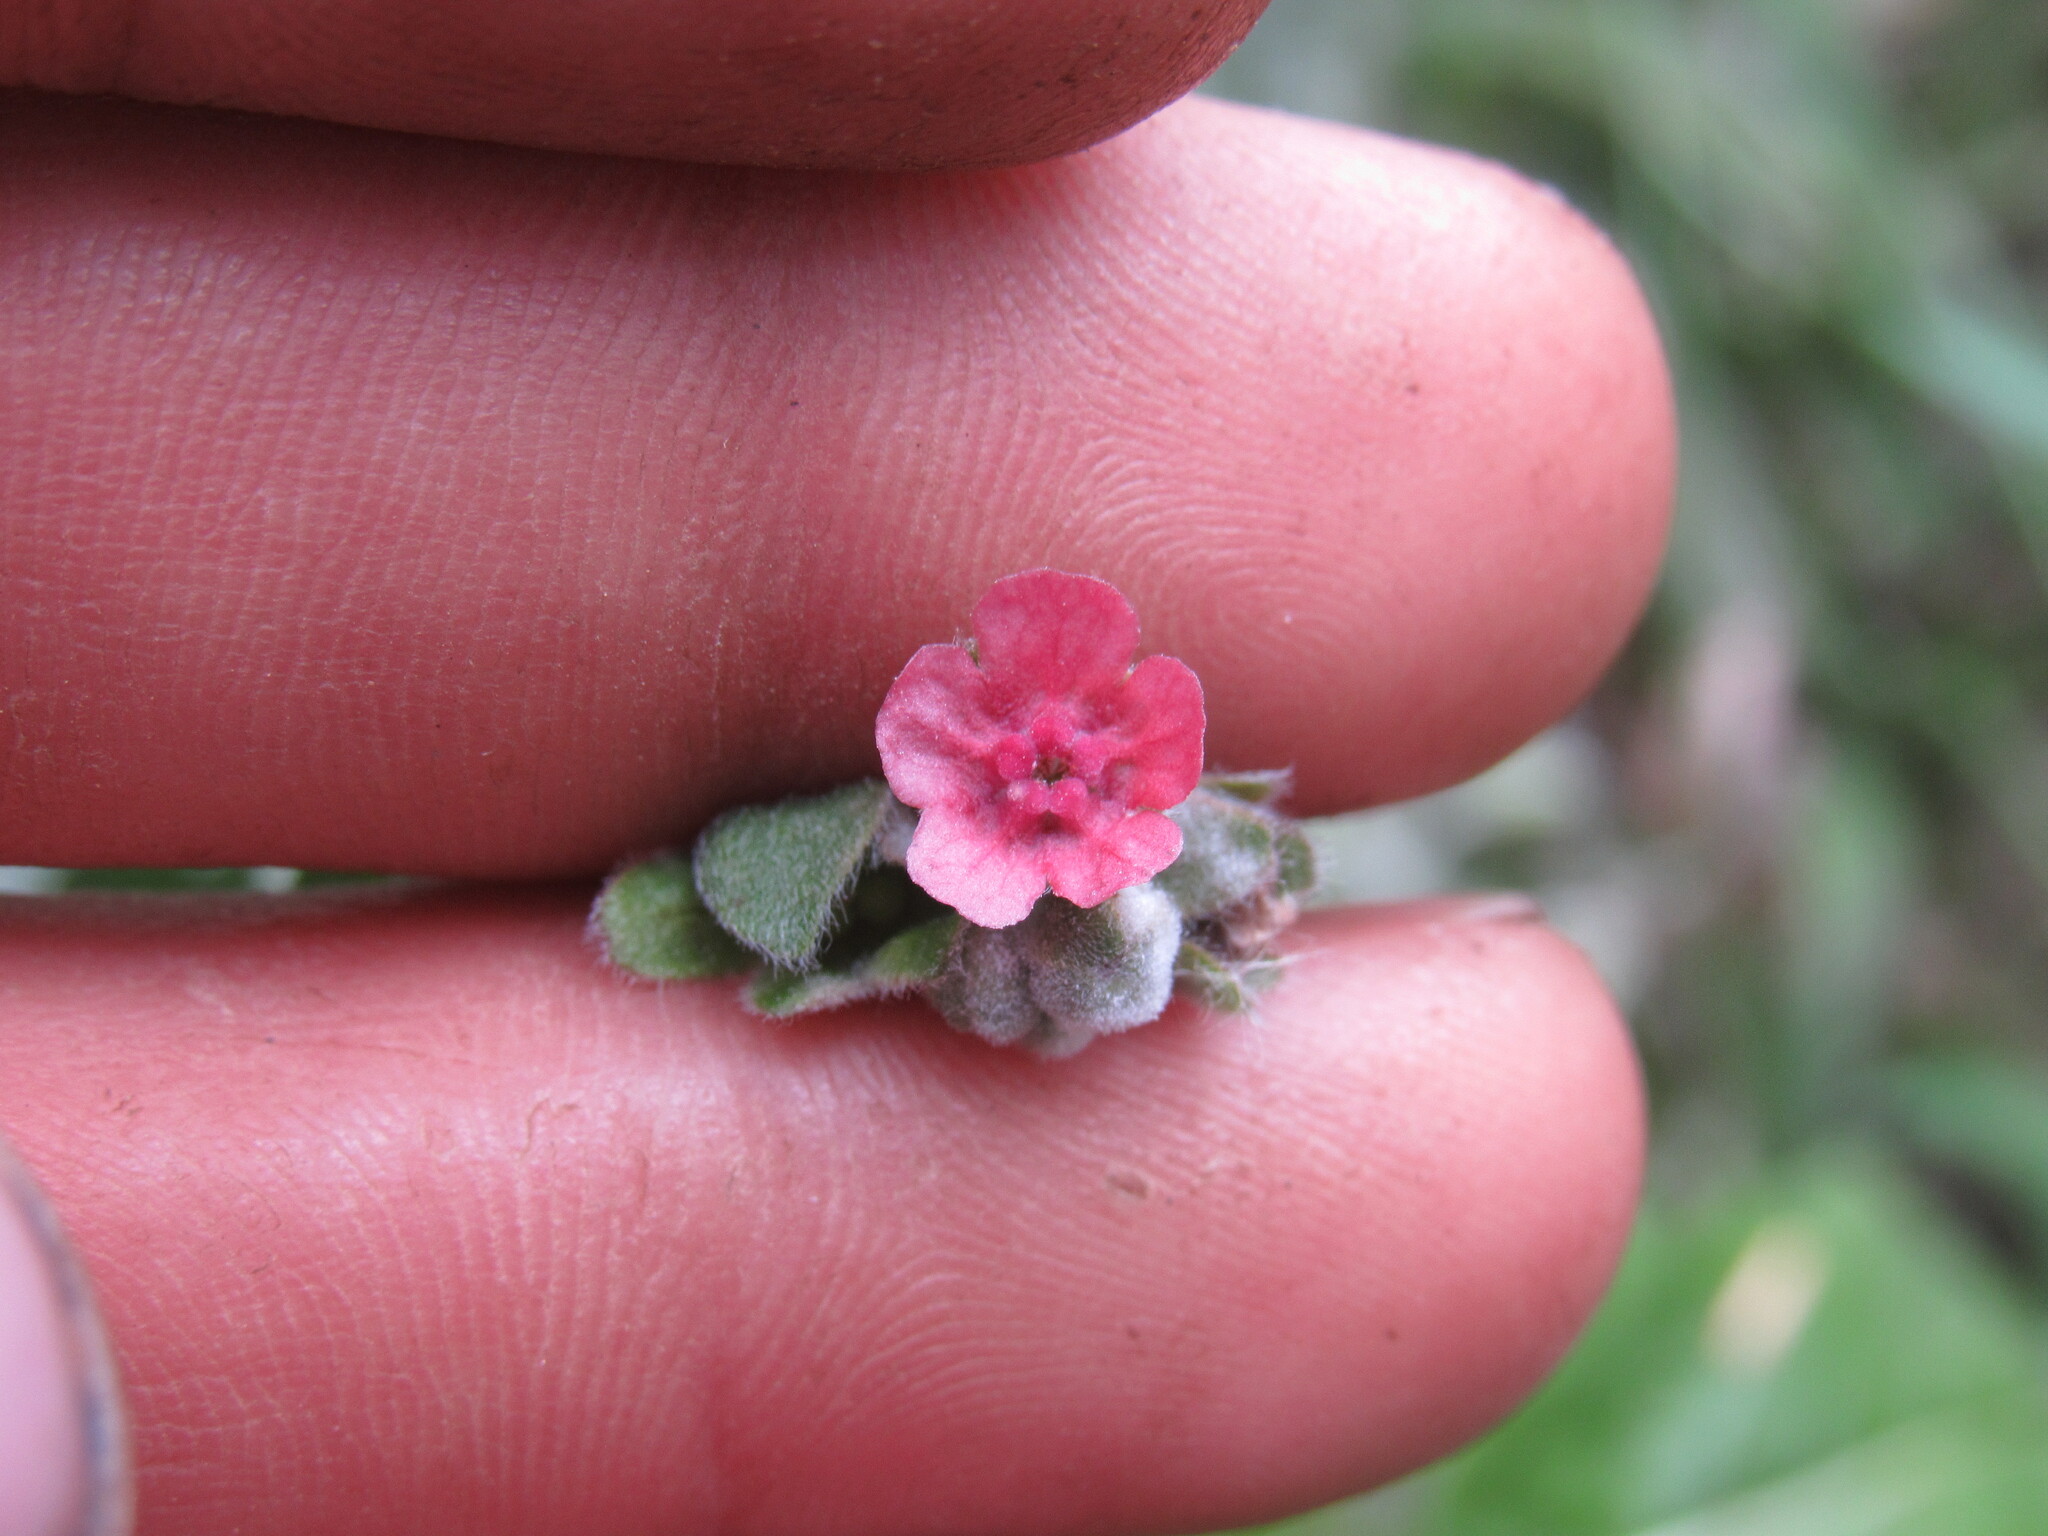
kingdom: Plantae
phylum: Tracheophyta
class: Magnoliopsida
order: Boraginales
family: Boraginaceae
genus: Cynoglossum
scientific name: Cynoglossum officinale
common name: Hound's-tongue
